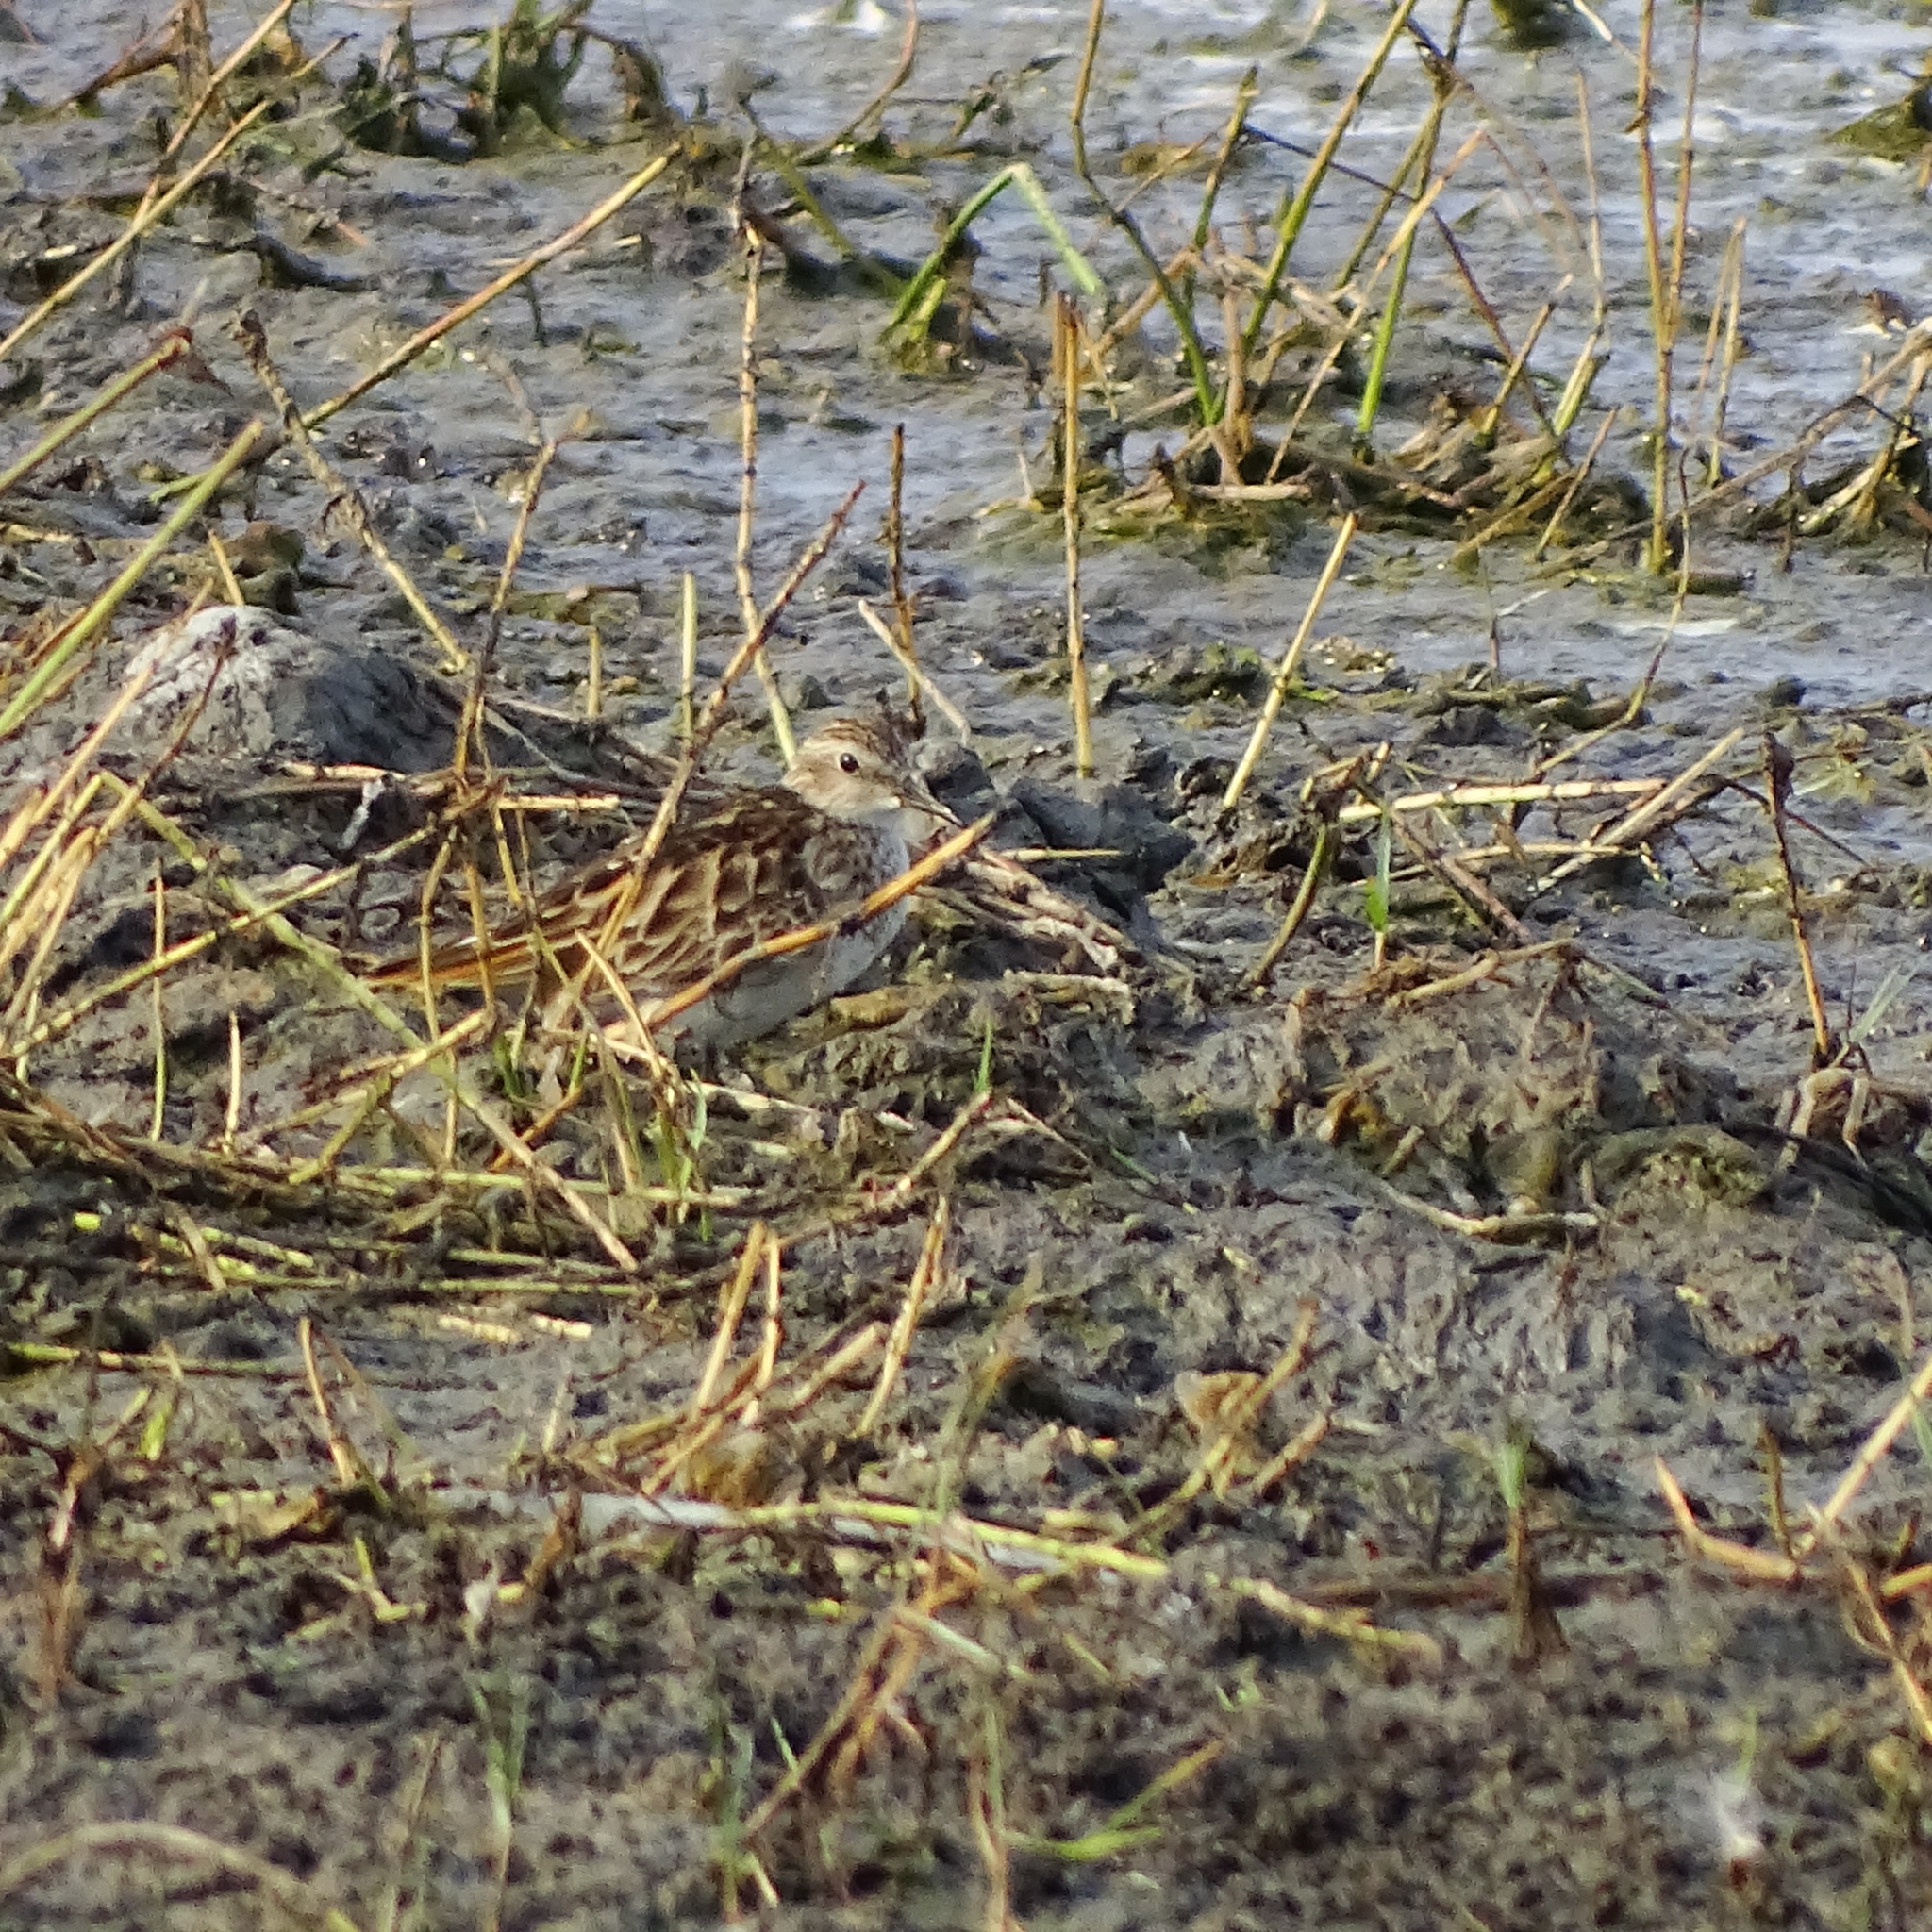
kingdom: Animalia
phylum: Chordata
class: Aves
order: Charadriiformes
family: Scolopacidae
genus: Calidris
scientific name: Calidris subminuta
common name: Long-toed stint
